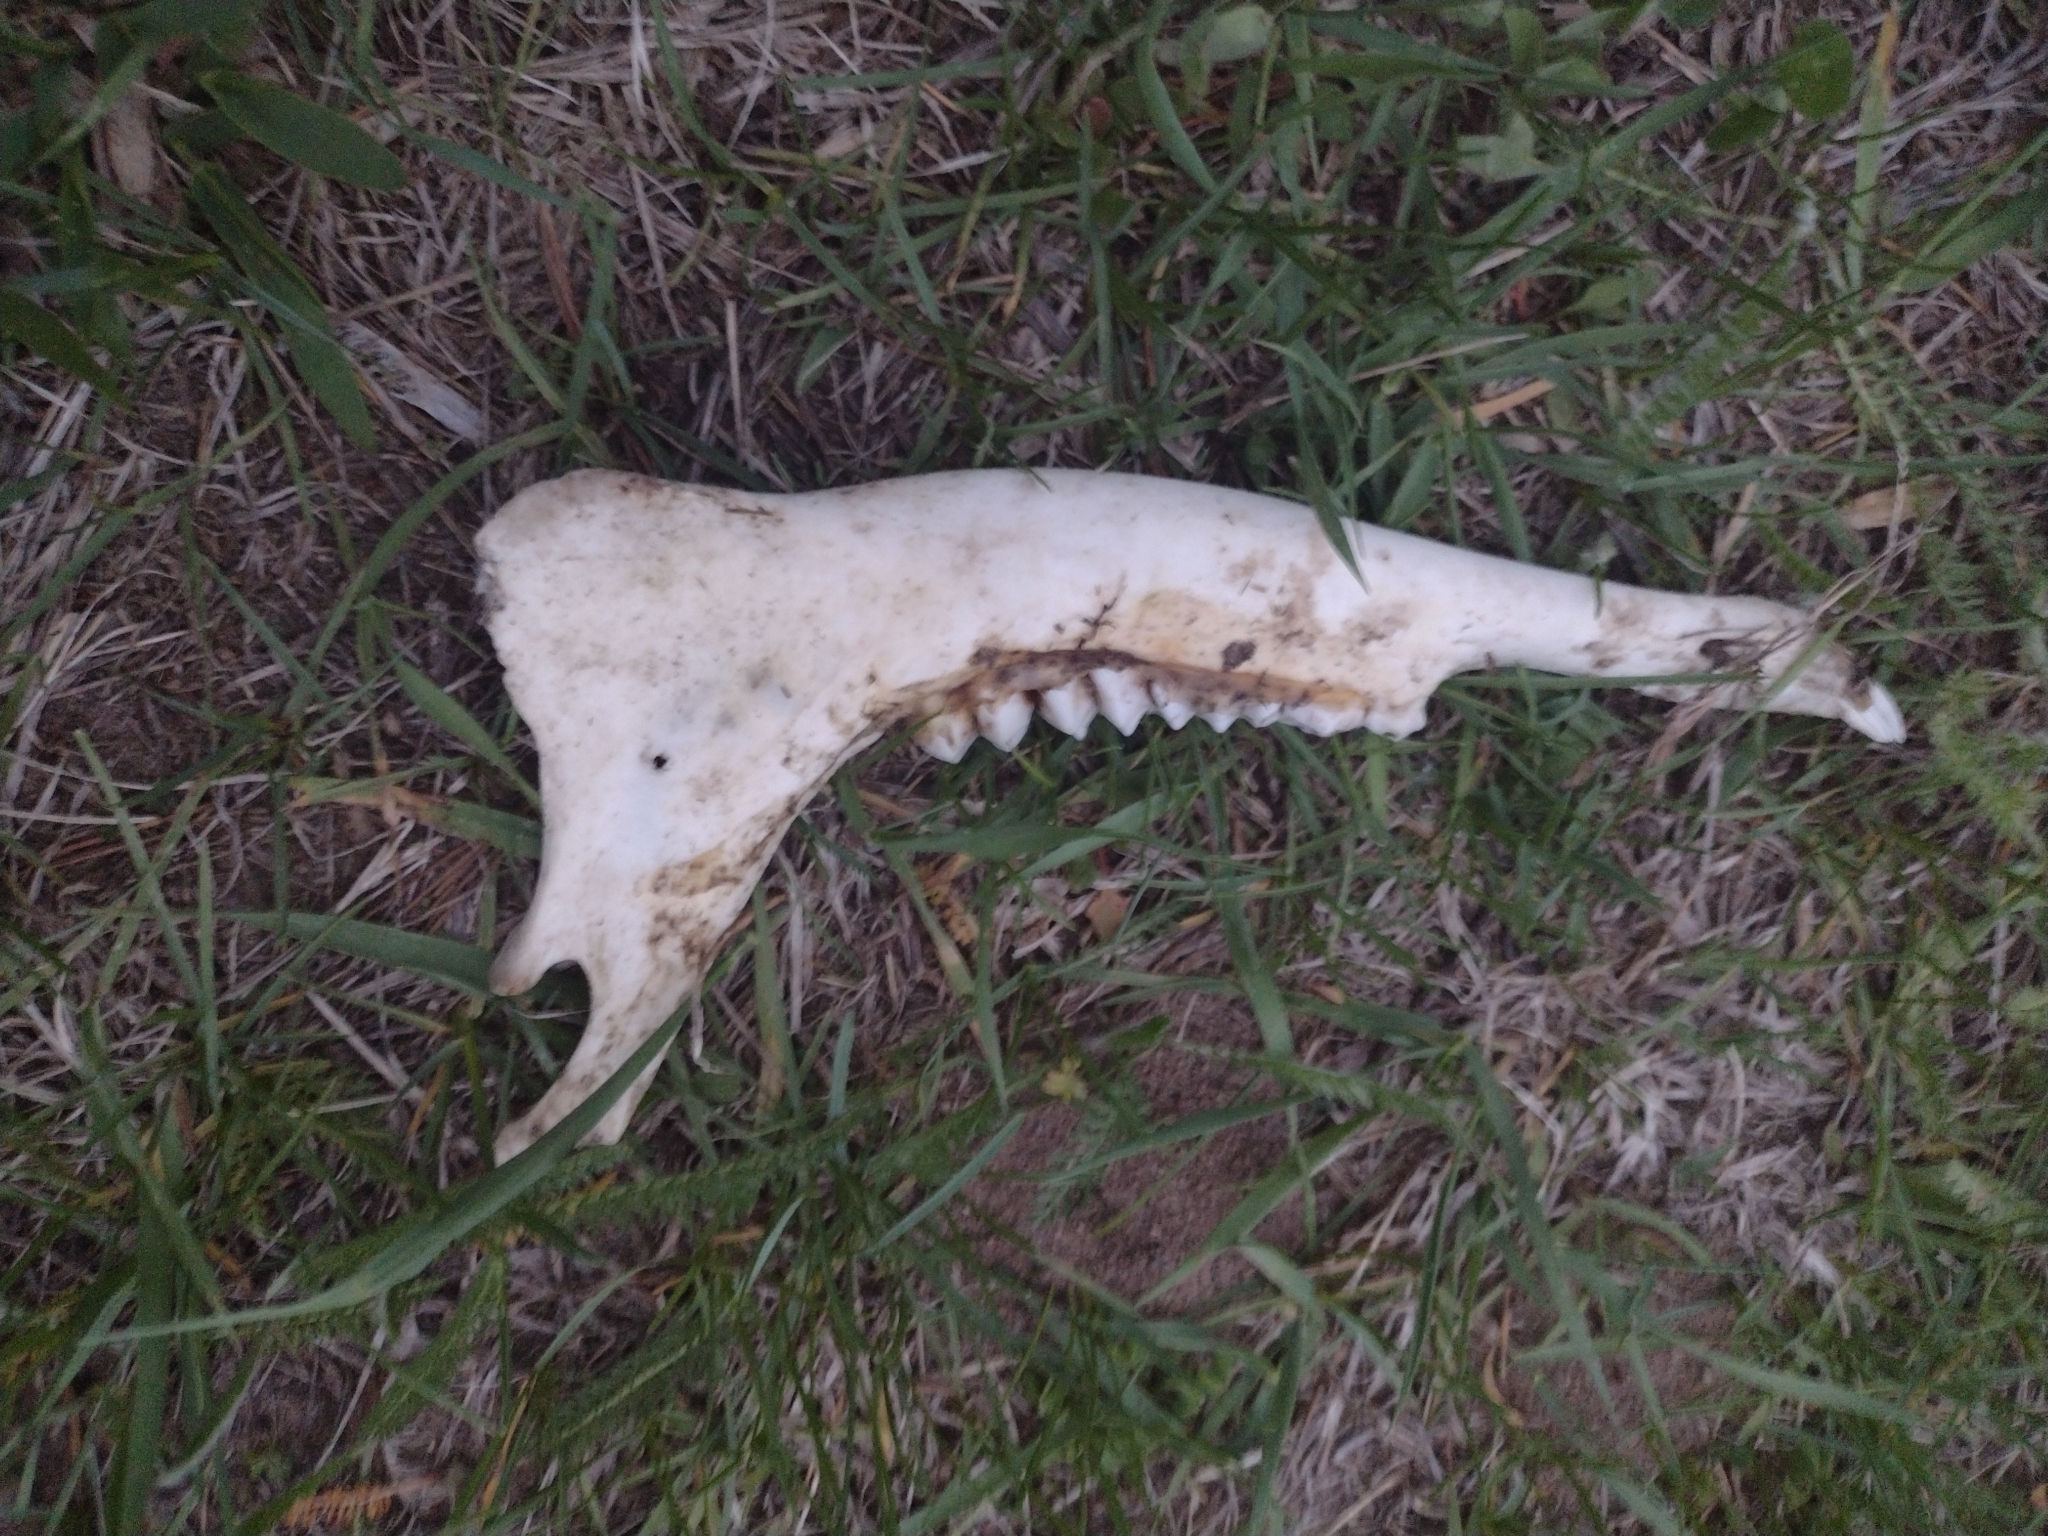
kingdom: Animalia
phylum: Chordata
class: Mammalia
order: Artiodactyla
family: Cervidae
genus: Odocoileus
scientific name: Odocoileus virginianus
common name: White-tailed deer
